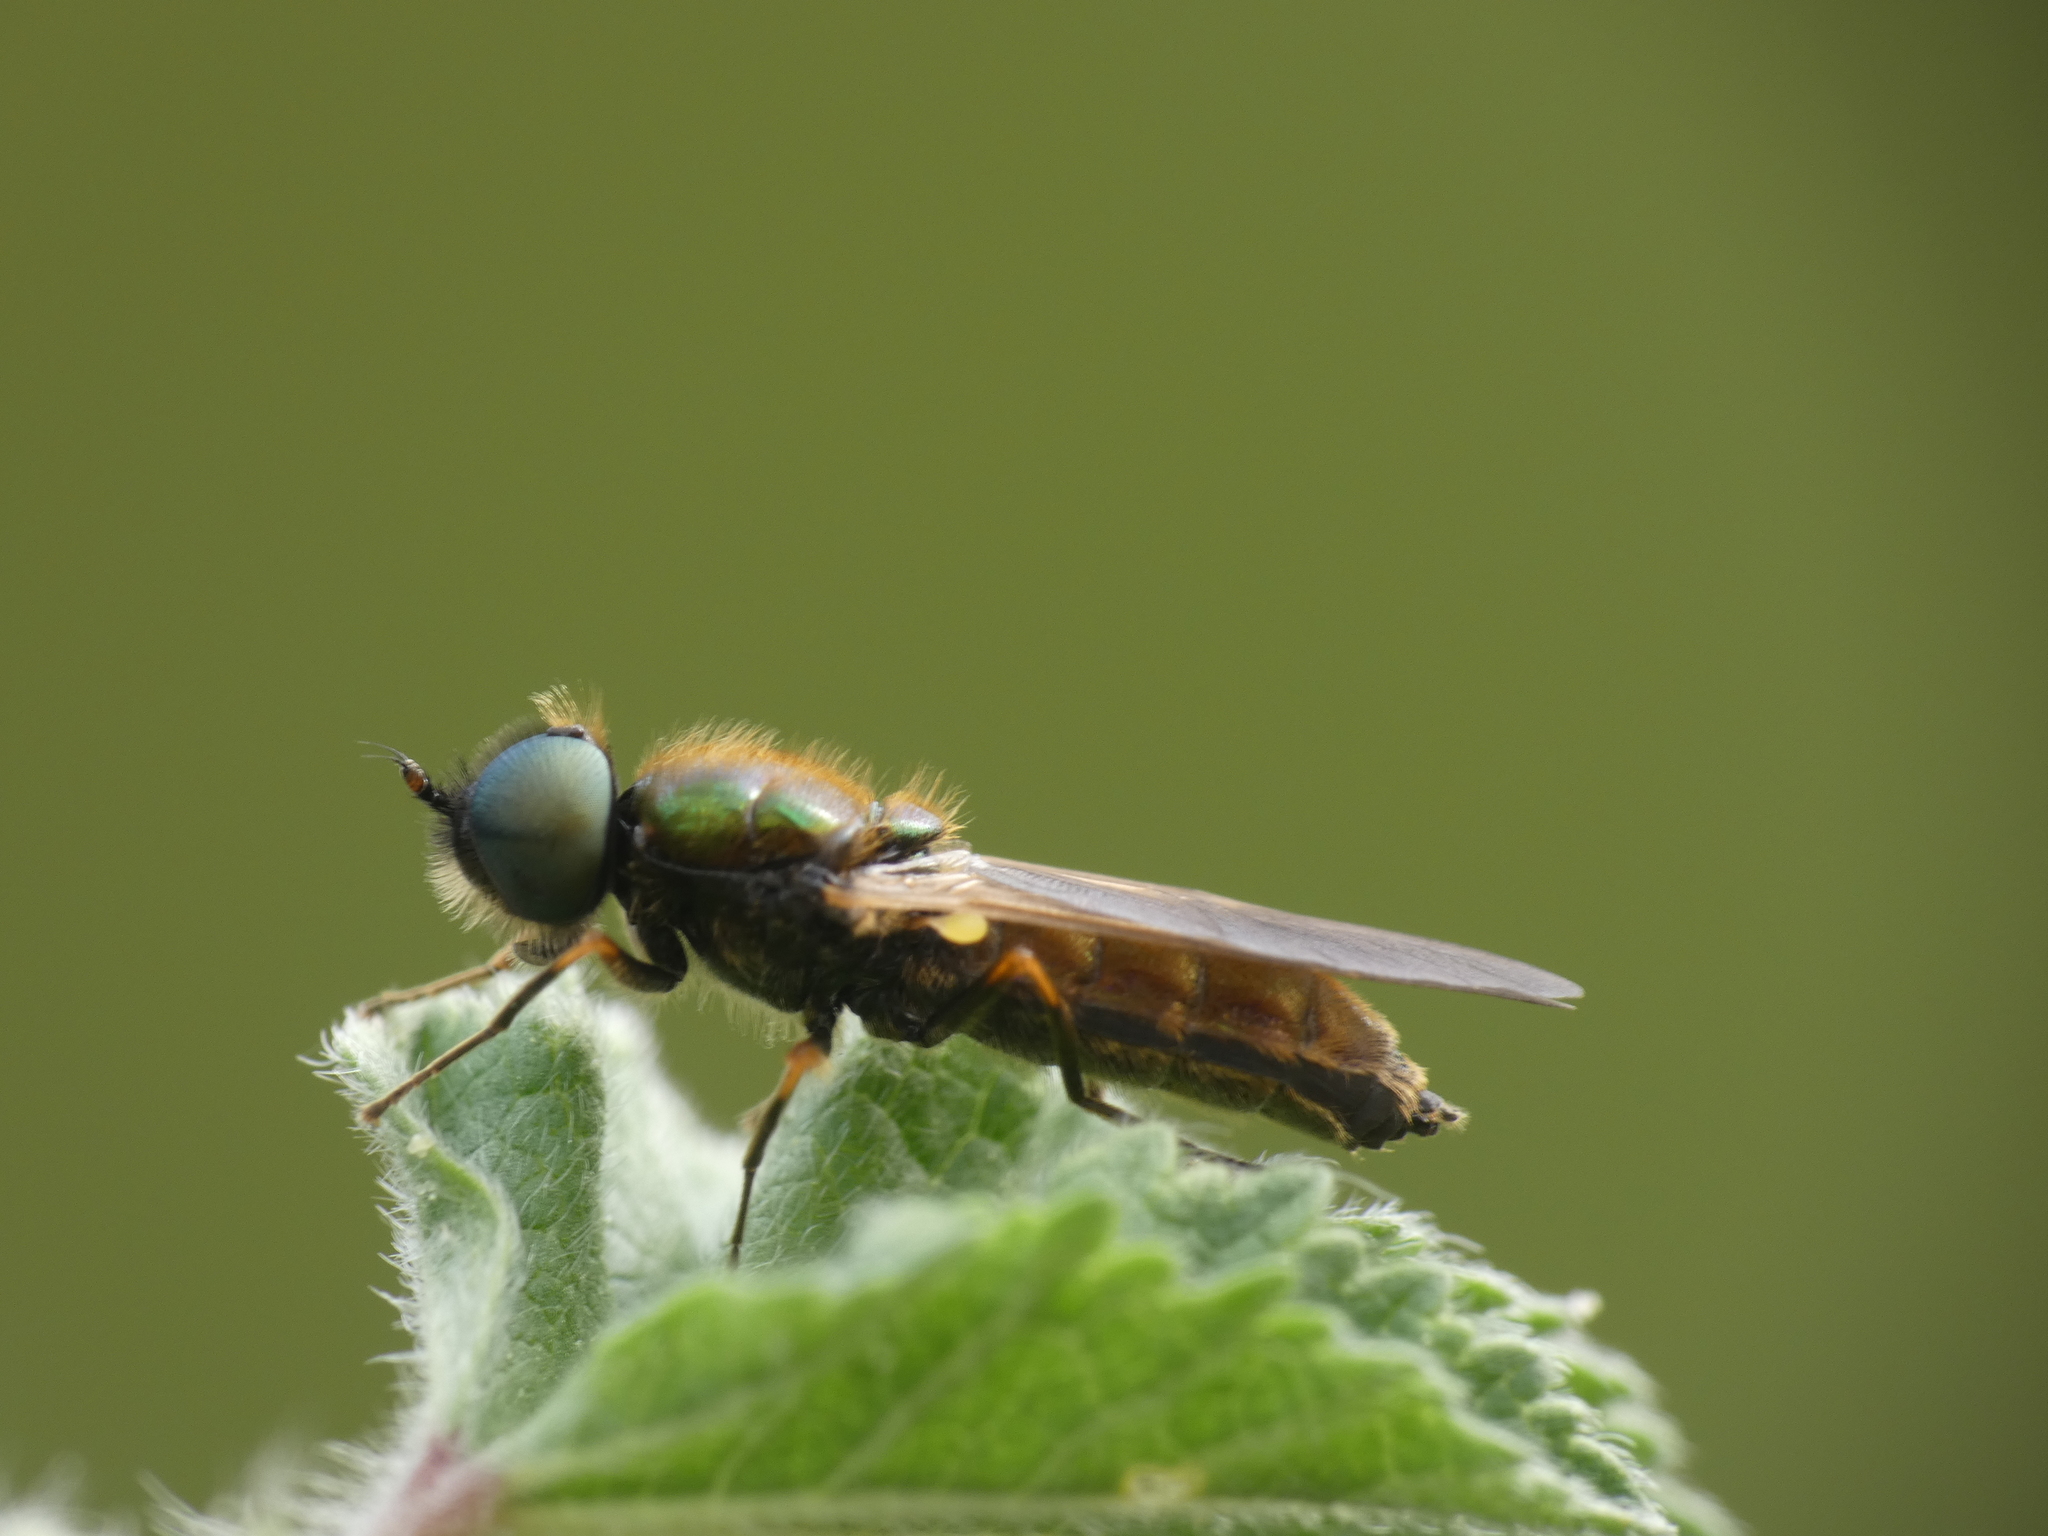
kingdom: Animalia
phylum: Arthropoda
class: Insecta
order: Diptera
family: Stratiomyidae
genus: Chloromyia
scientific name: Chloromyia formosa
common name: Soldier fly
